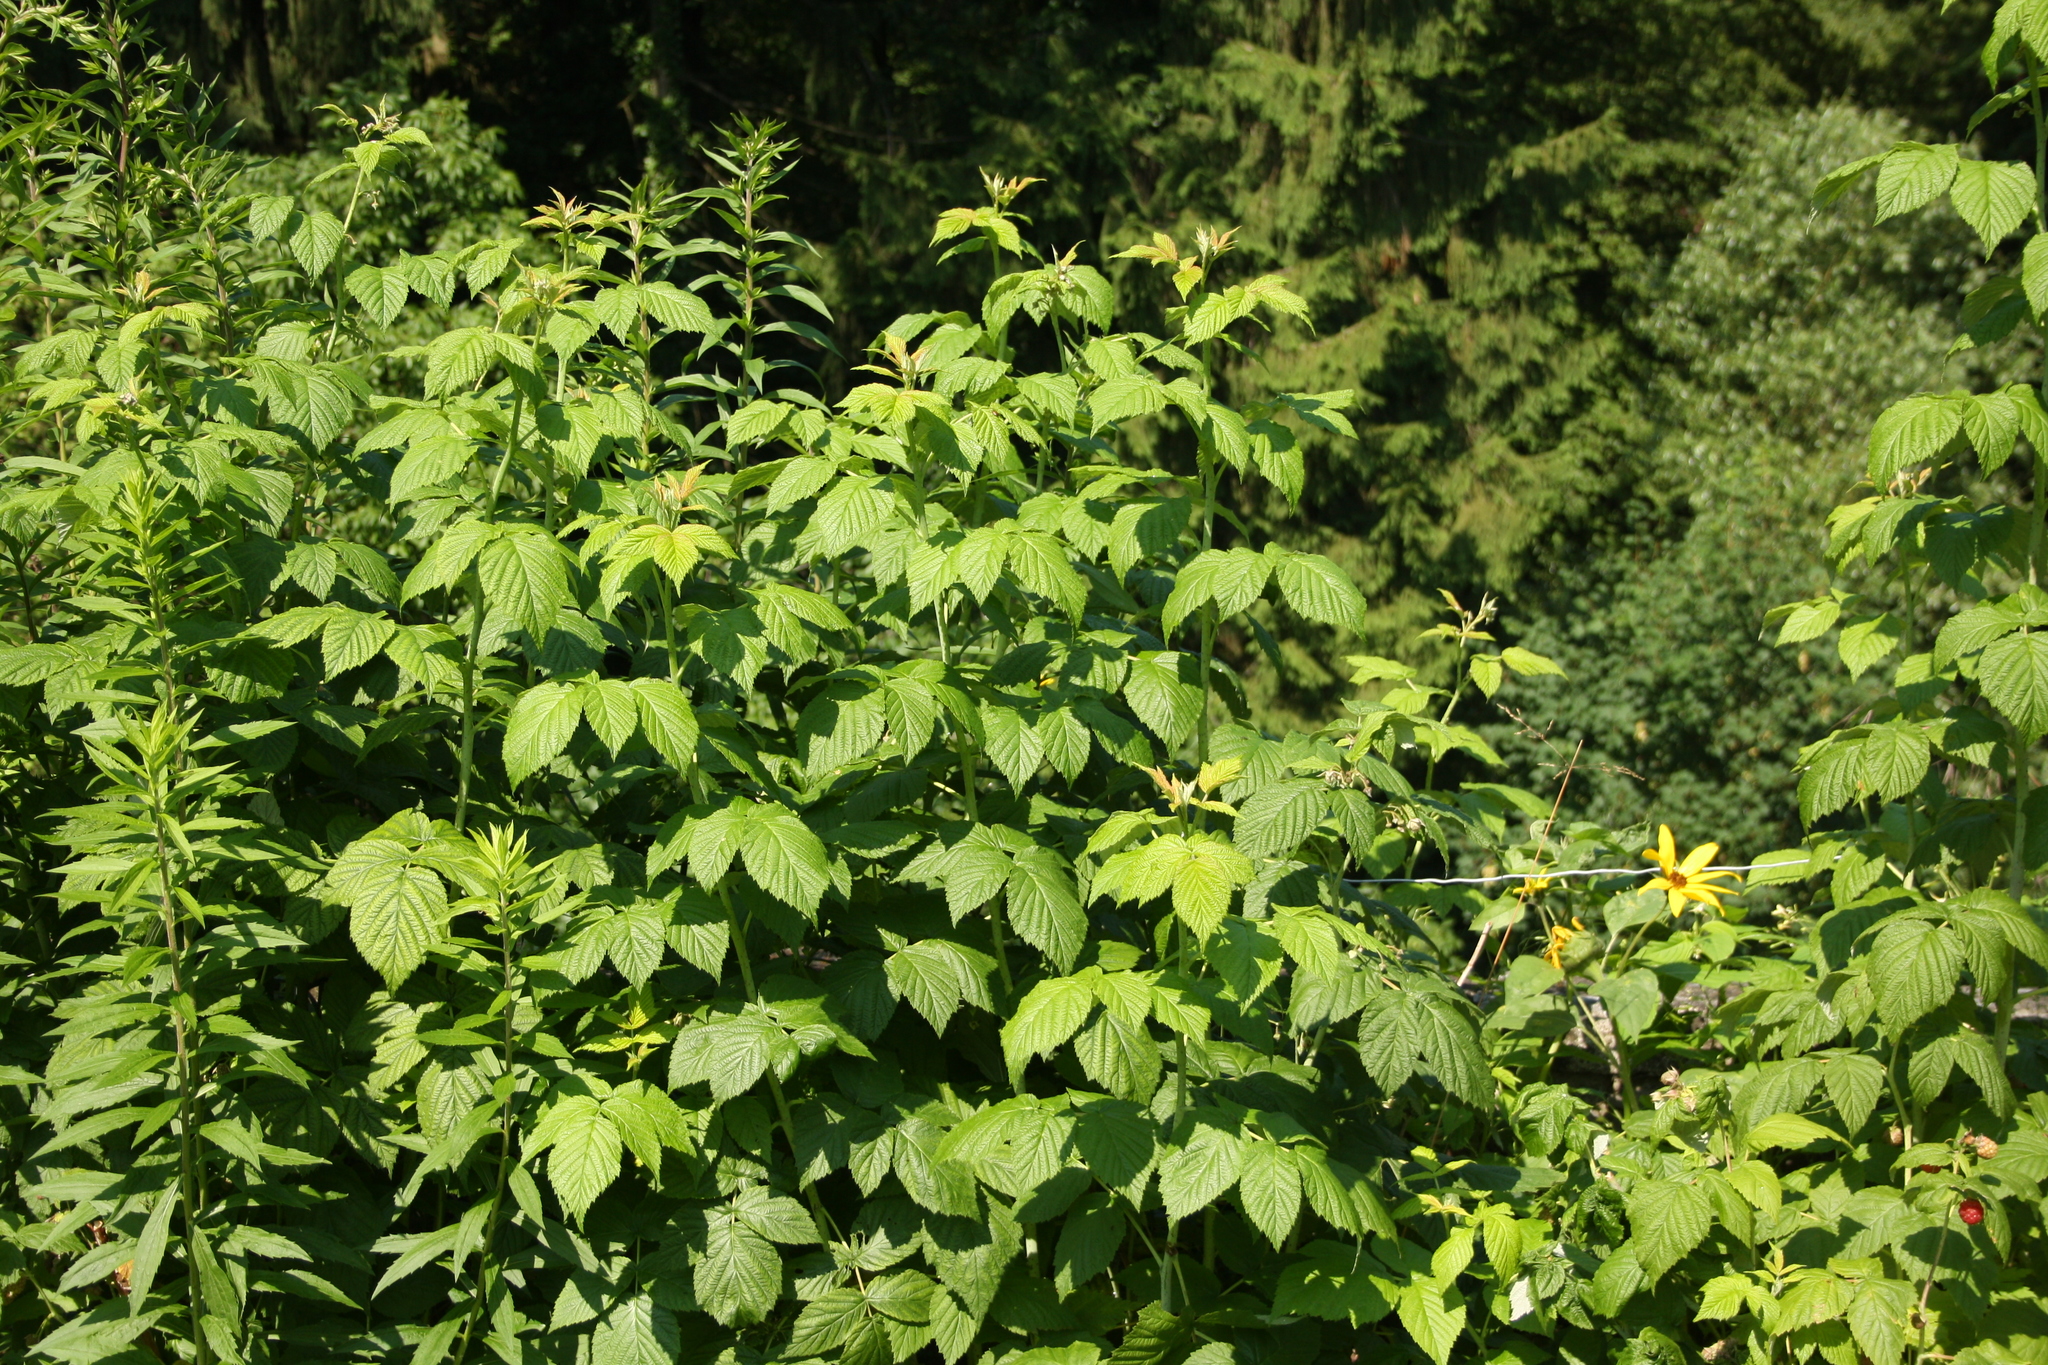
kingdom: Plantae
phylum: Tracheophyta
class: Magnoliopsida
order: Rosales
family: Rosaceae
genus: Rubus
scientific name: Rubus idaeus
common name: Raspberry
